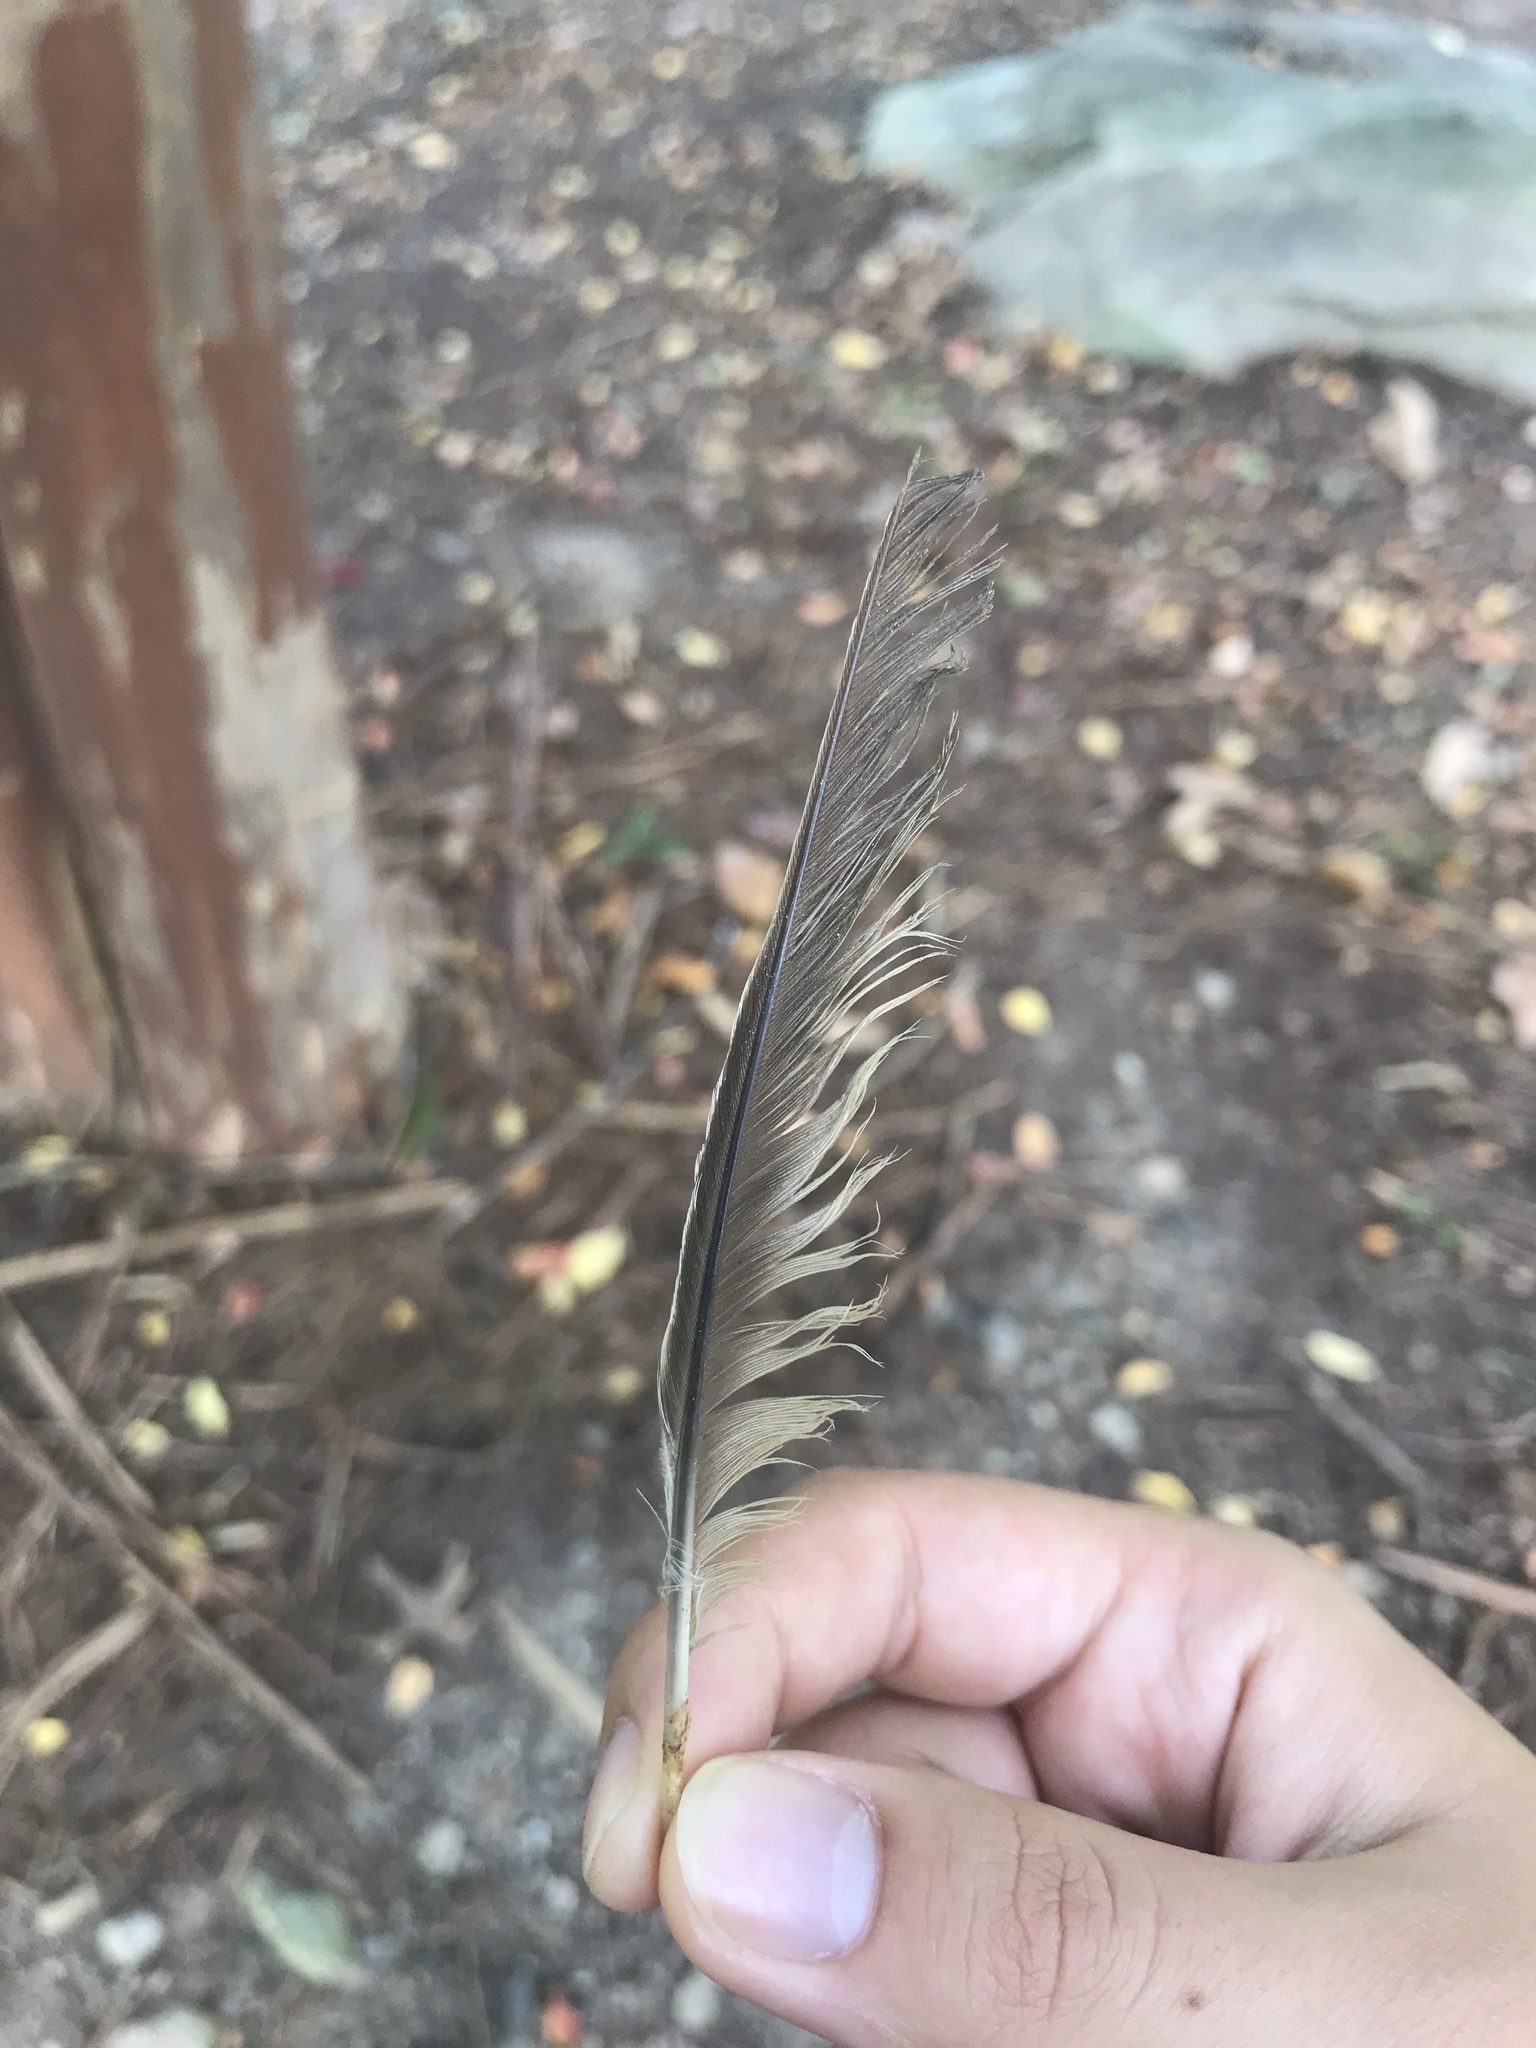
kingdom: Animalia
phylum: Chordata
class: Aves
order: Passeriformes
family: Turdidae
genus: Turdus
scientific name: Turdus migratorius
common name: American robin
